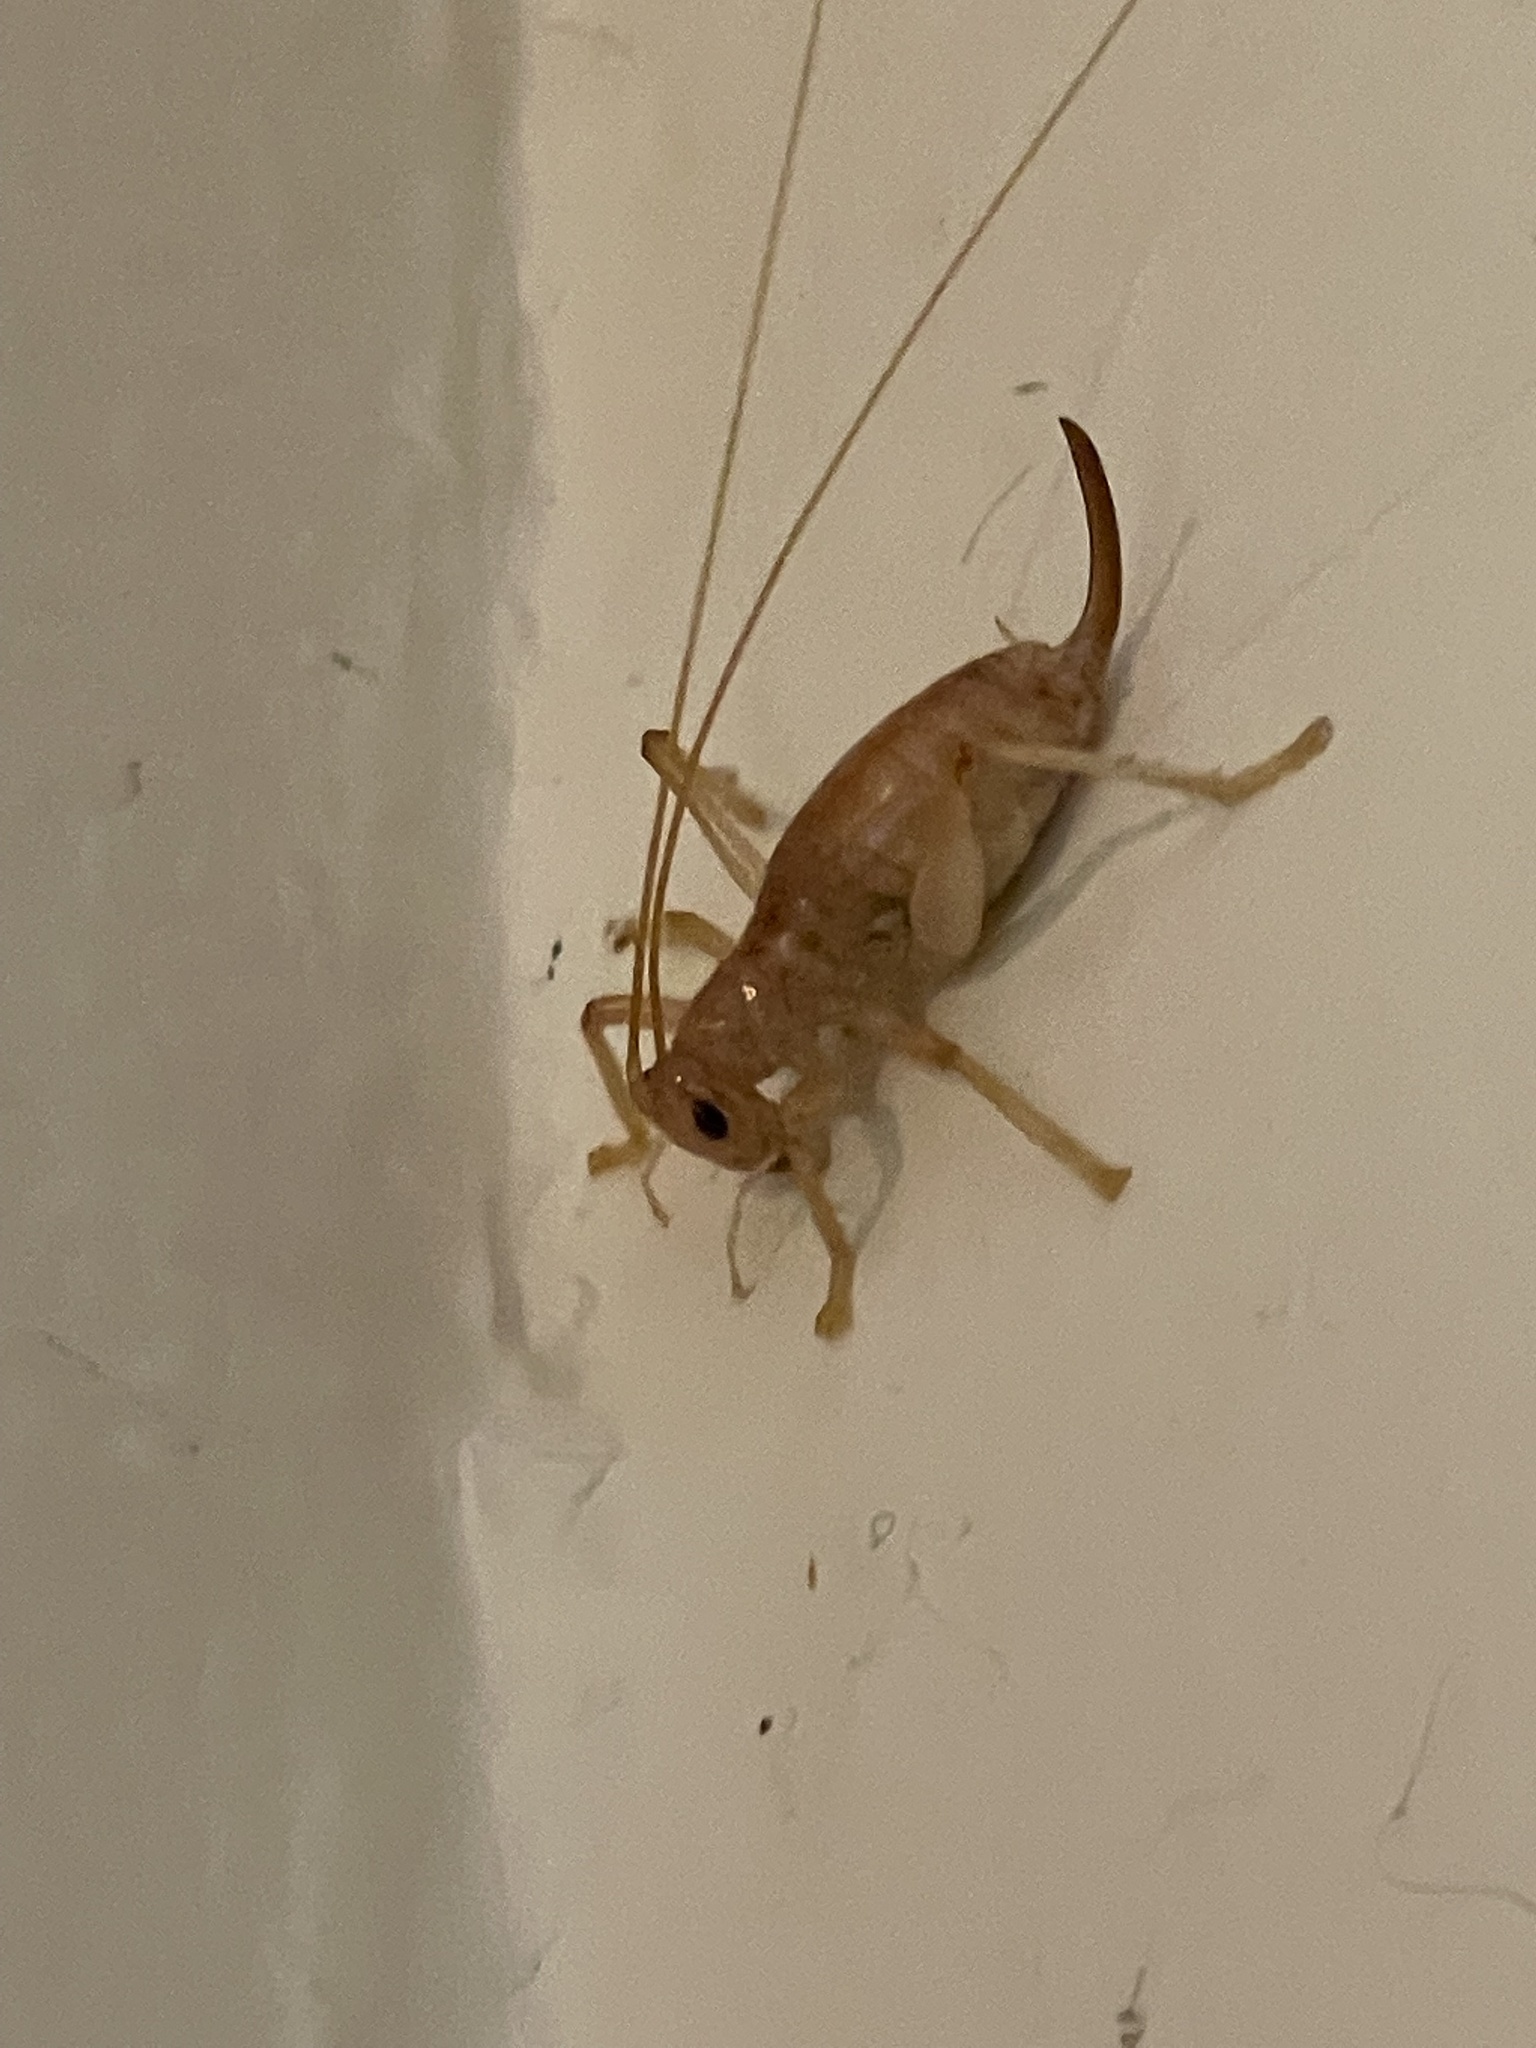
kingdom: Animalia
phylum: Arthropoda
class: Insecta
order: Orthoptera
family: Gryllacrididae
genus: Camptonotus
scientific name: Camptonotus carolinensis
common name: Carolina leaf-roller
